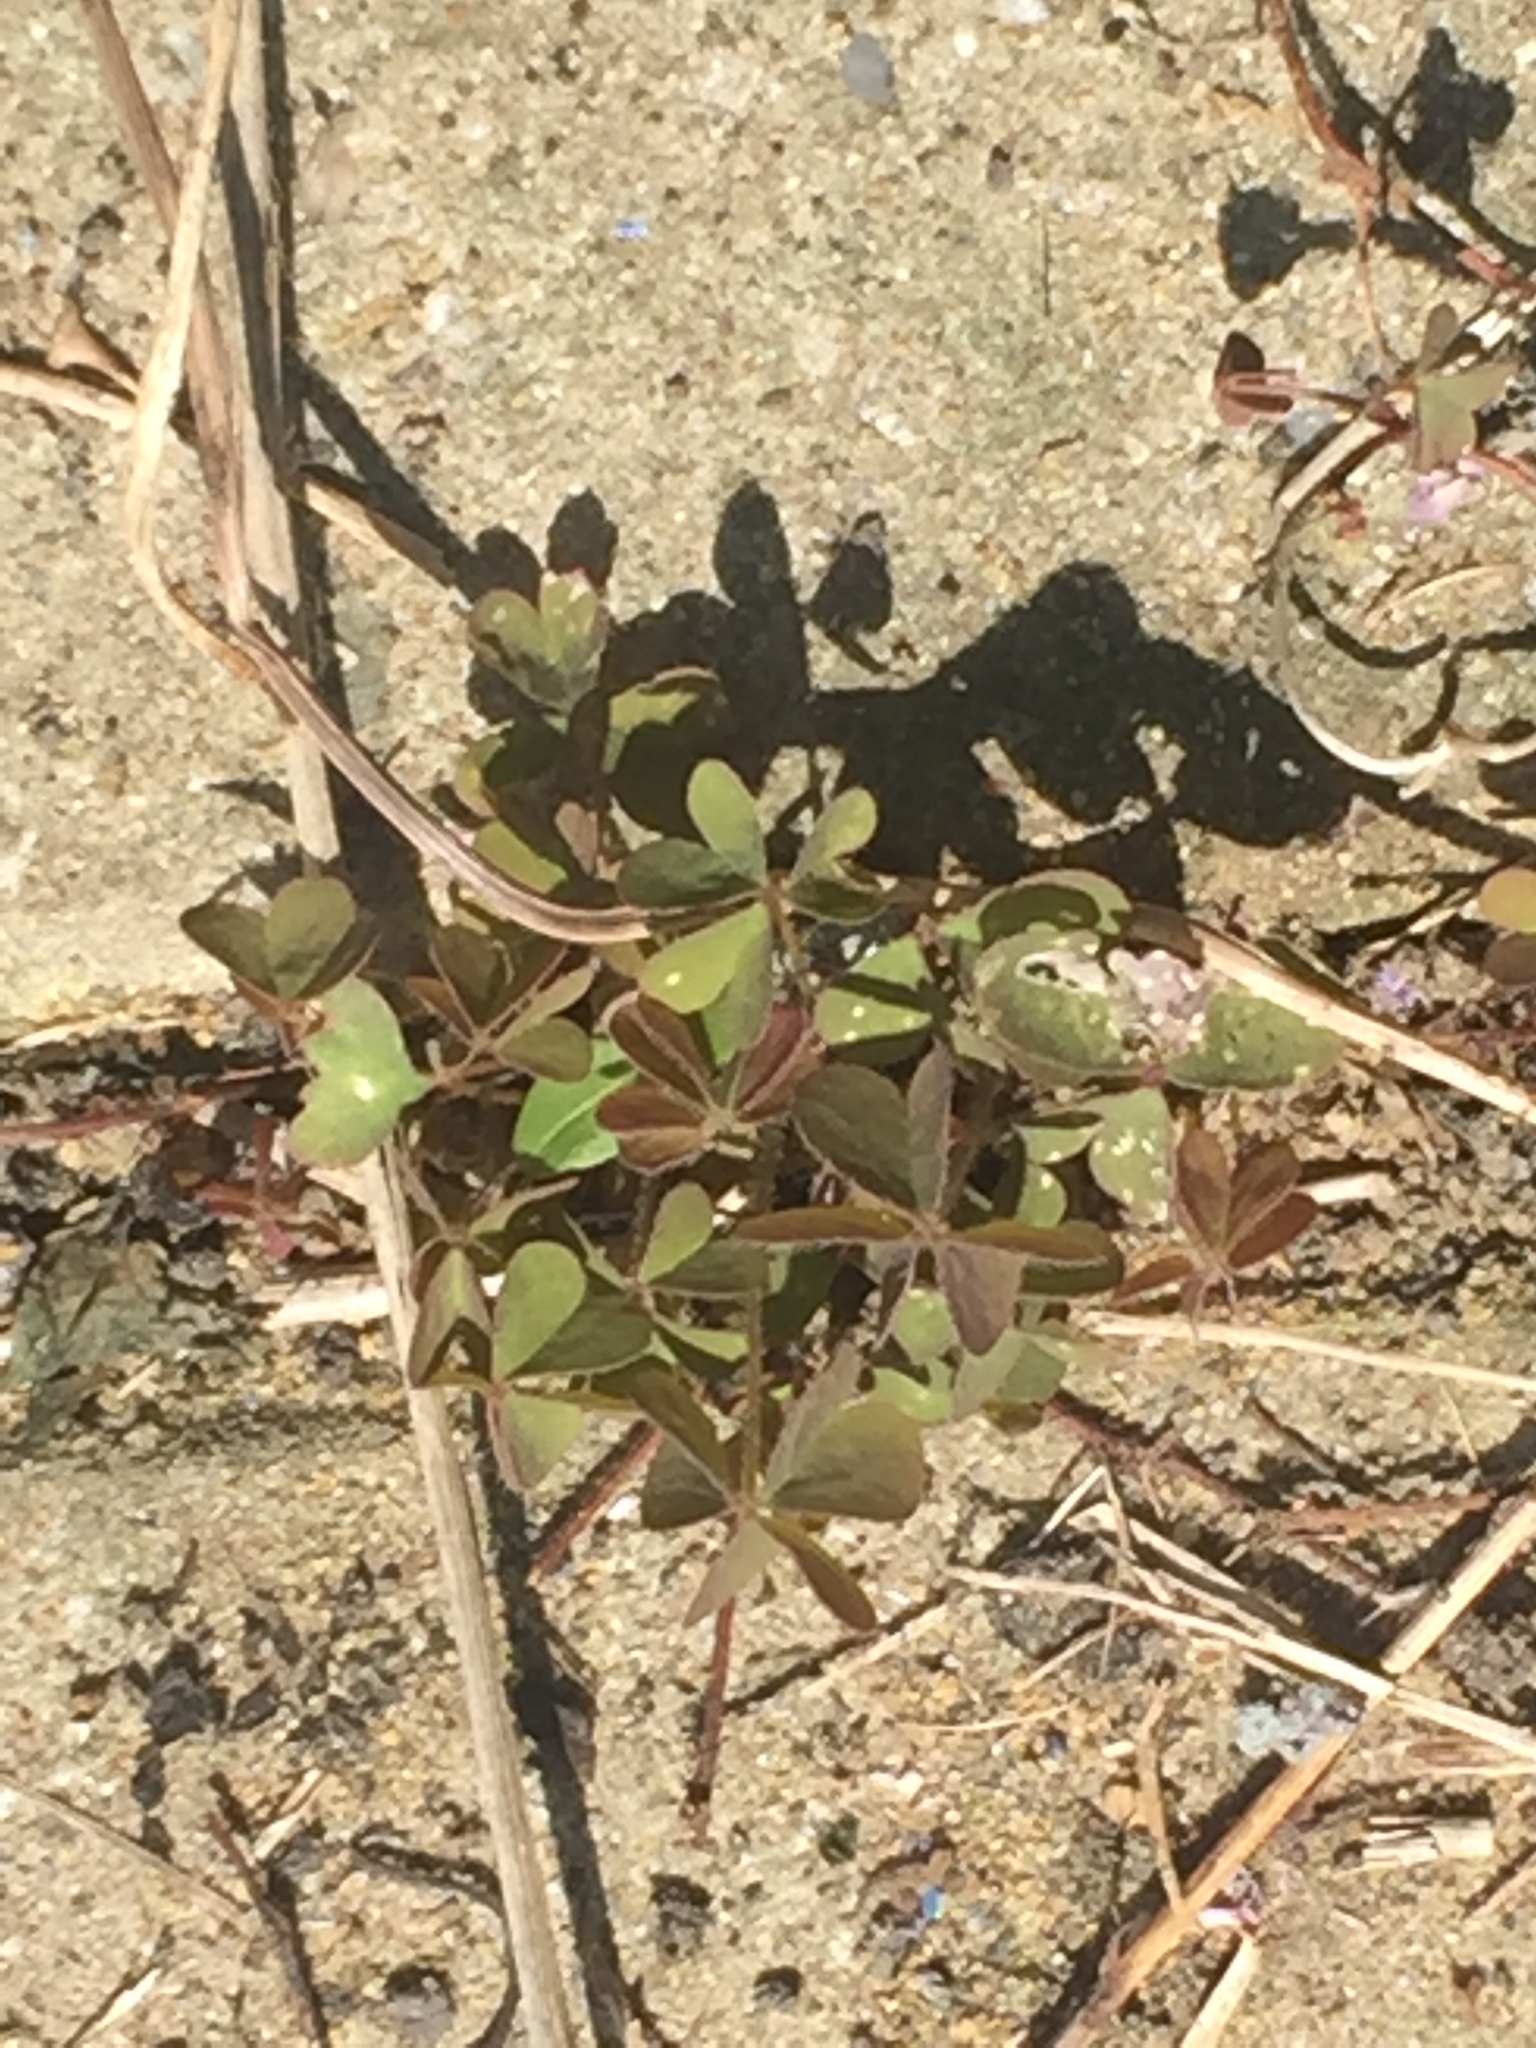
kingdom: Plantae
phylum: Tracheophyta
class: Magnoliopsida
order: Oxalidales
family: Oxalidaceae
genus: Oxalis
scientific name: Oxalis corniculata
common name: Procumbent yellow-sorrel
